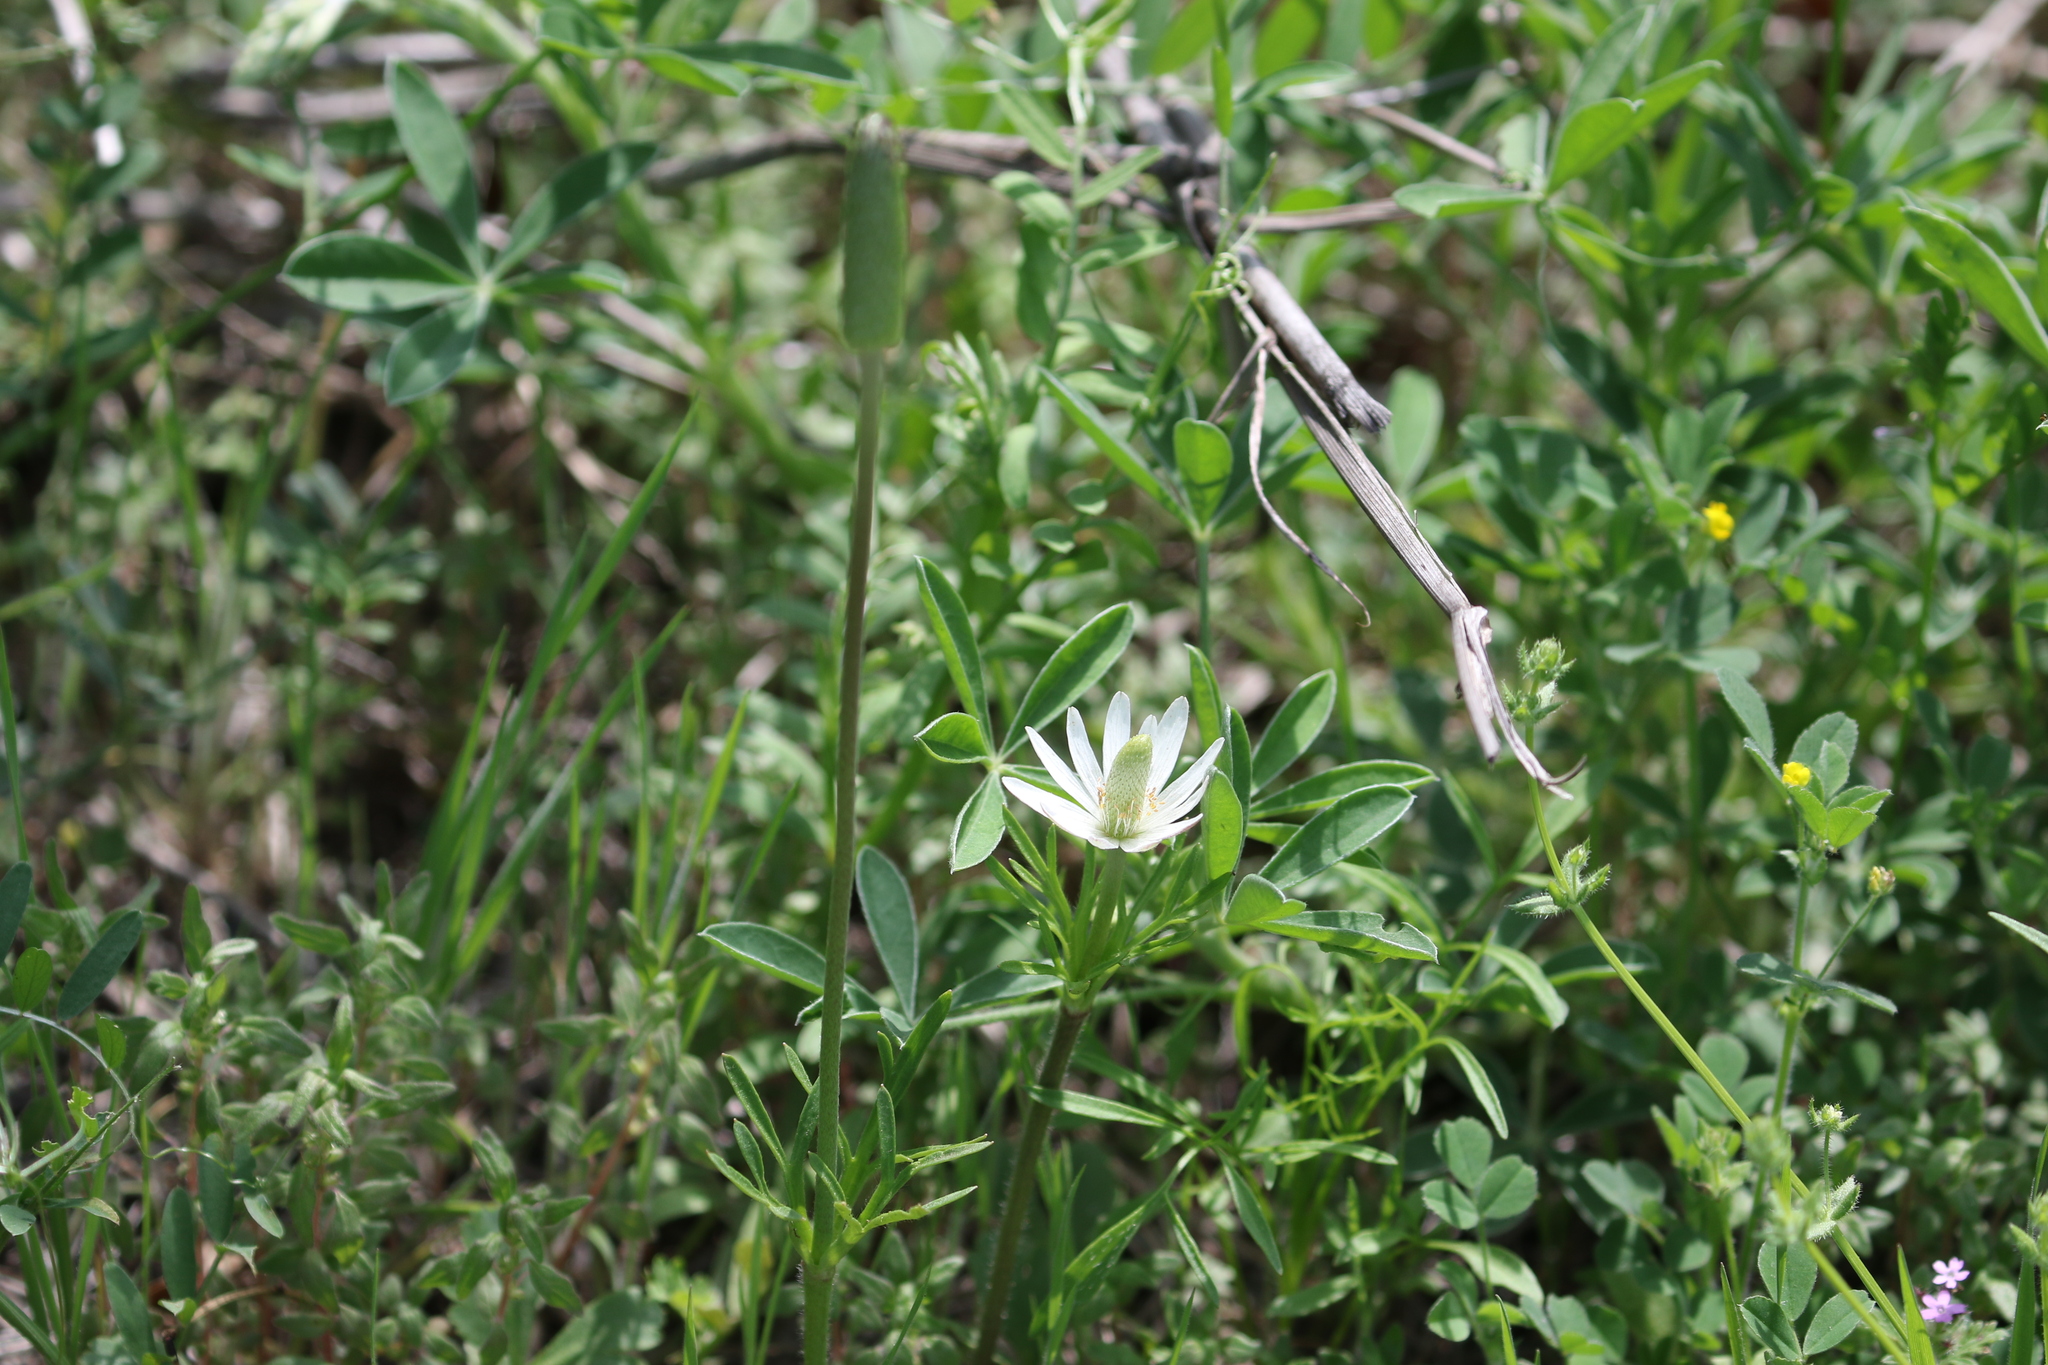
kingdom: Plantae
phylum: Tracheophyta
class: Magnoliopsida
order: Ranunculales
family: Ranunculaceae
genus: Anemone
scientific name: Anemone berlandieri
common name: Ten-petal anemone
